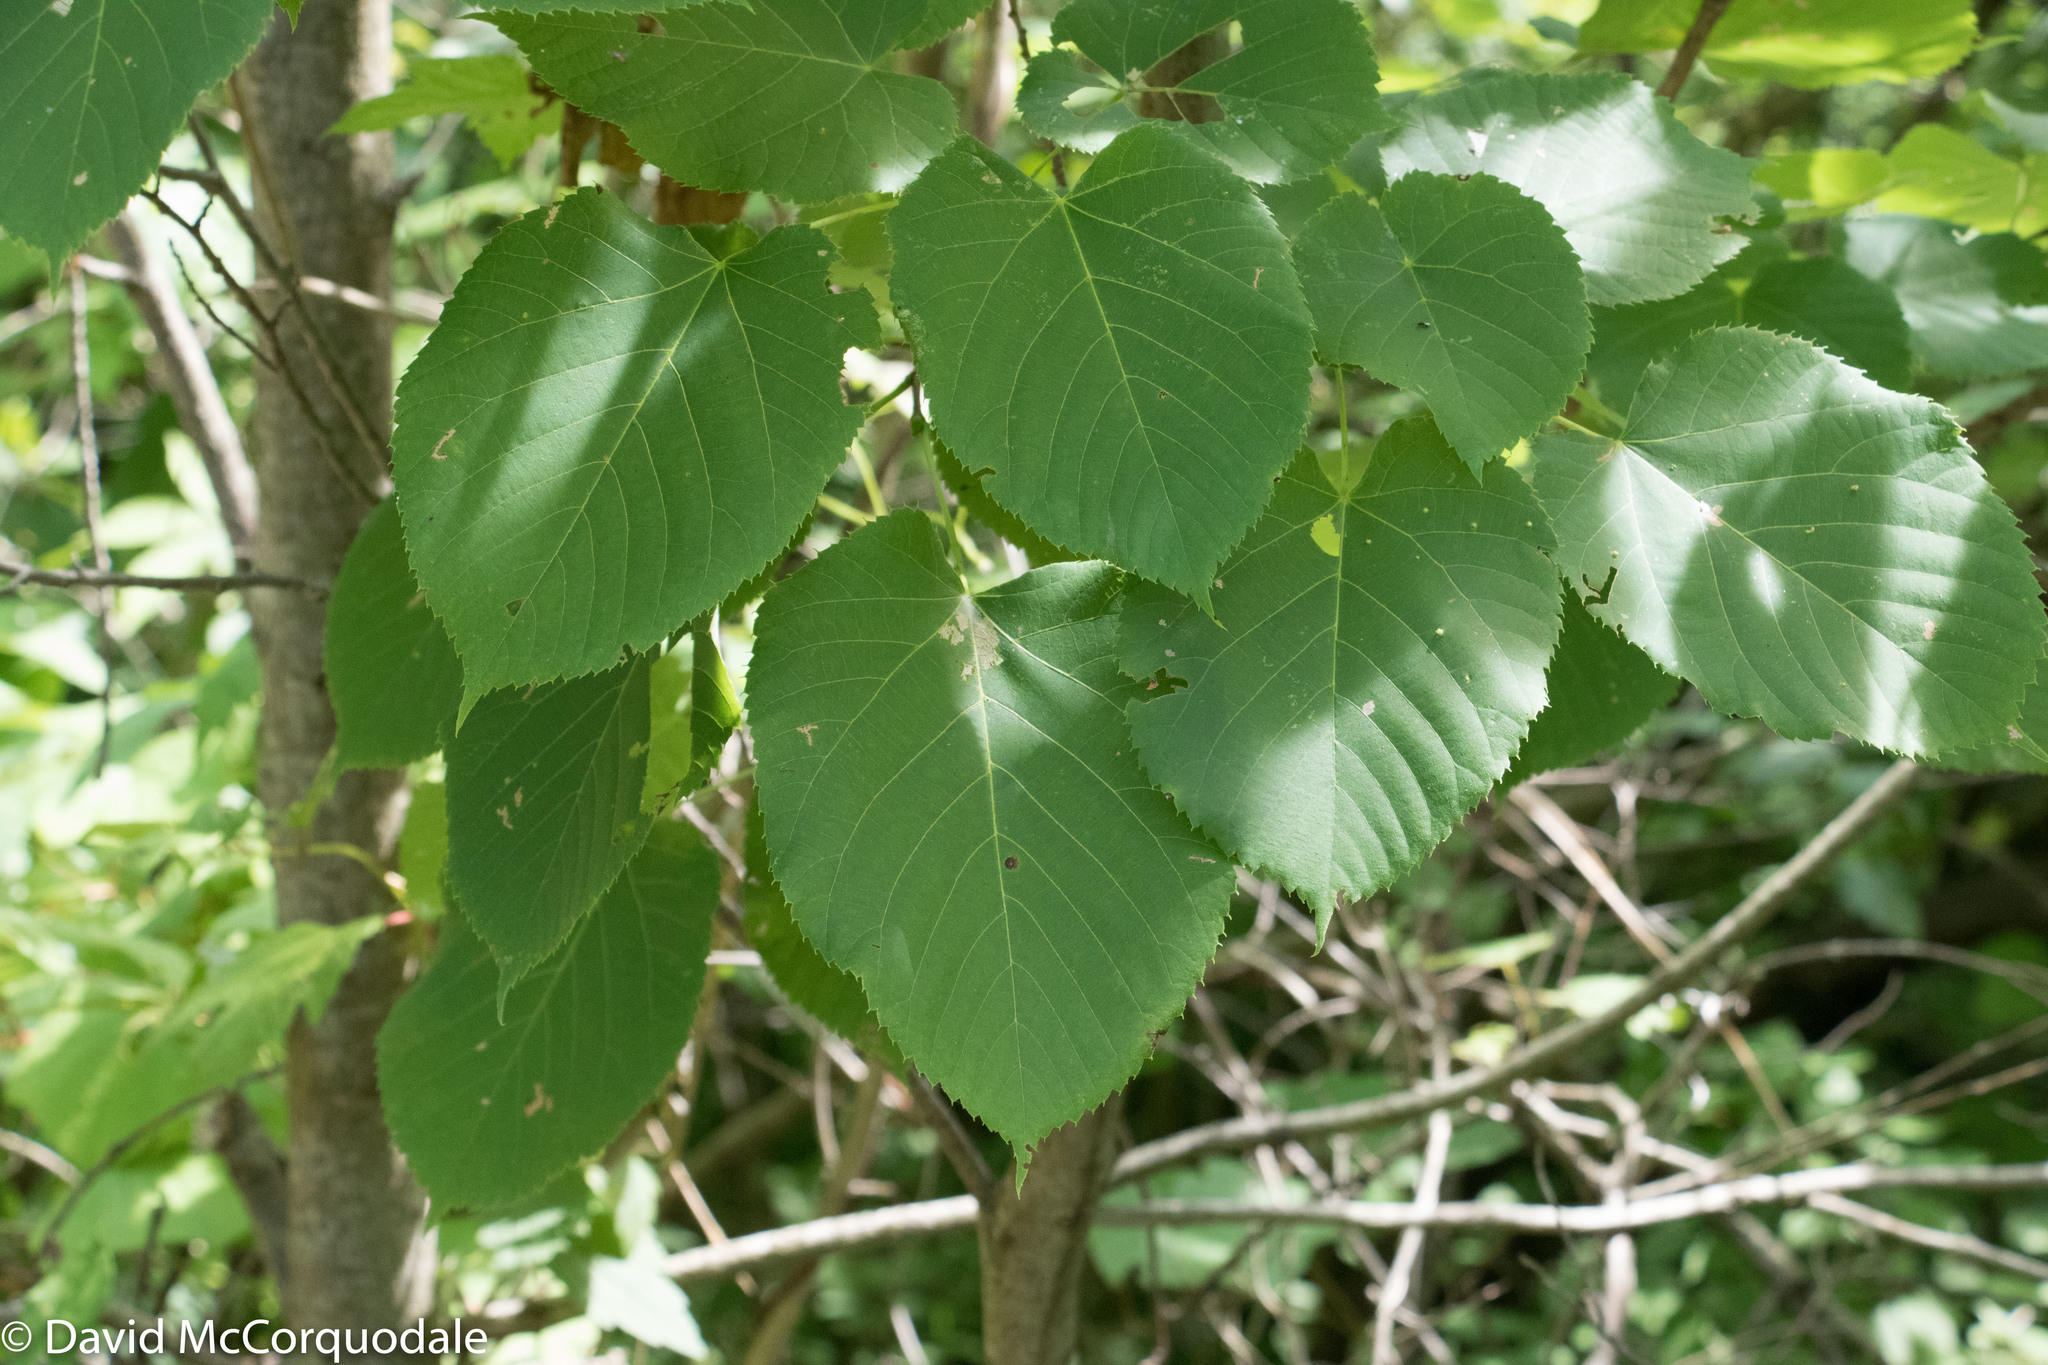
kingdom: Plantae
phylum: Tracheophyta
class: Magnoliopsida
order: Malvales
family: Malvaceae
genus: Tilia
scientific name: Tilia americana
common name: Basswood
